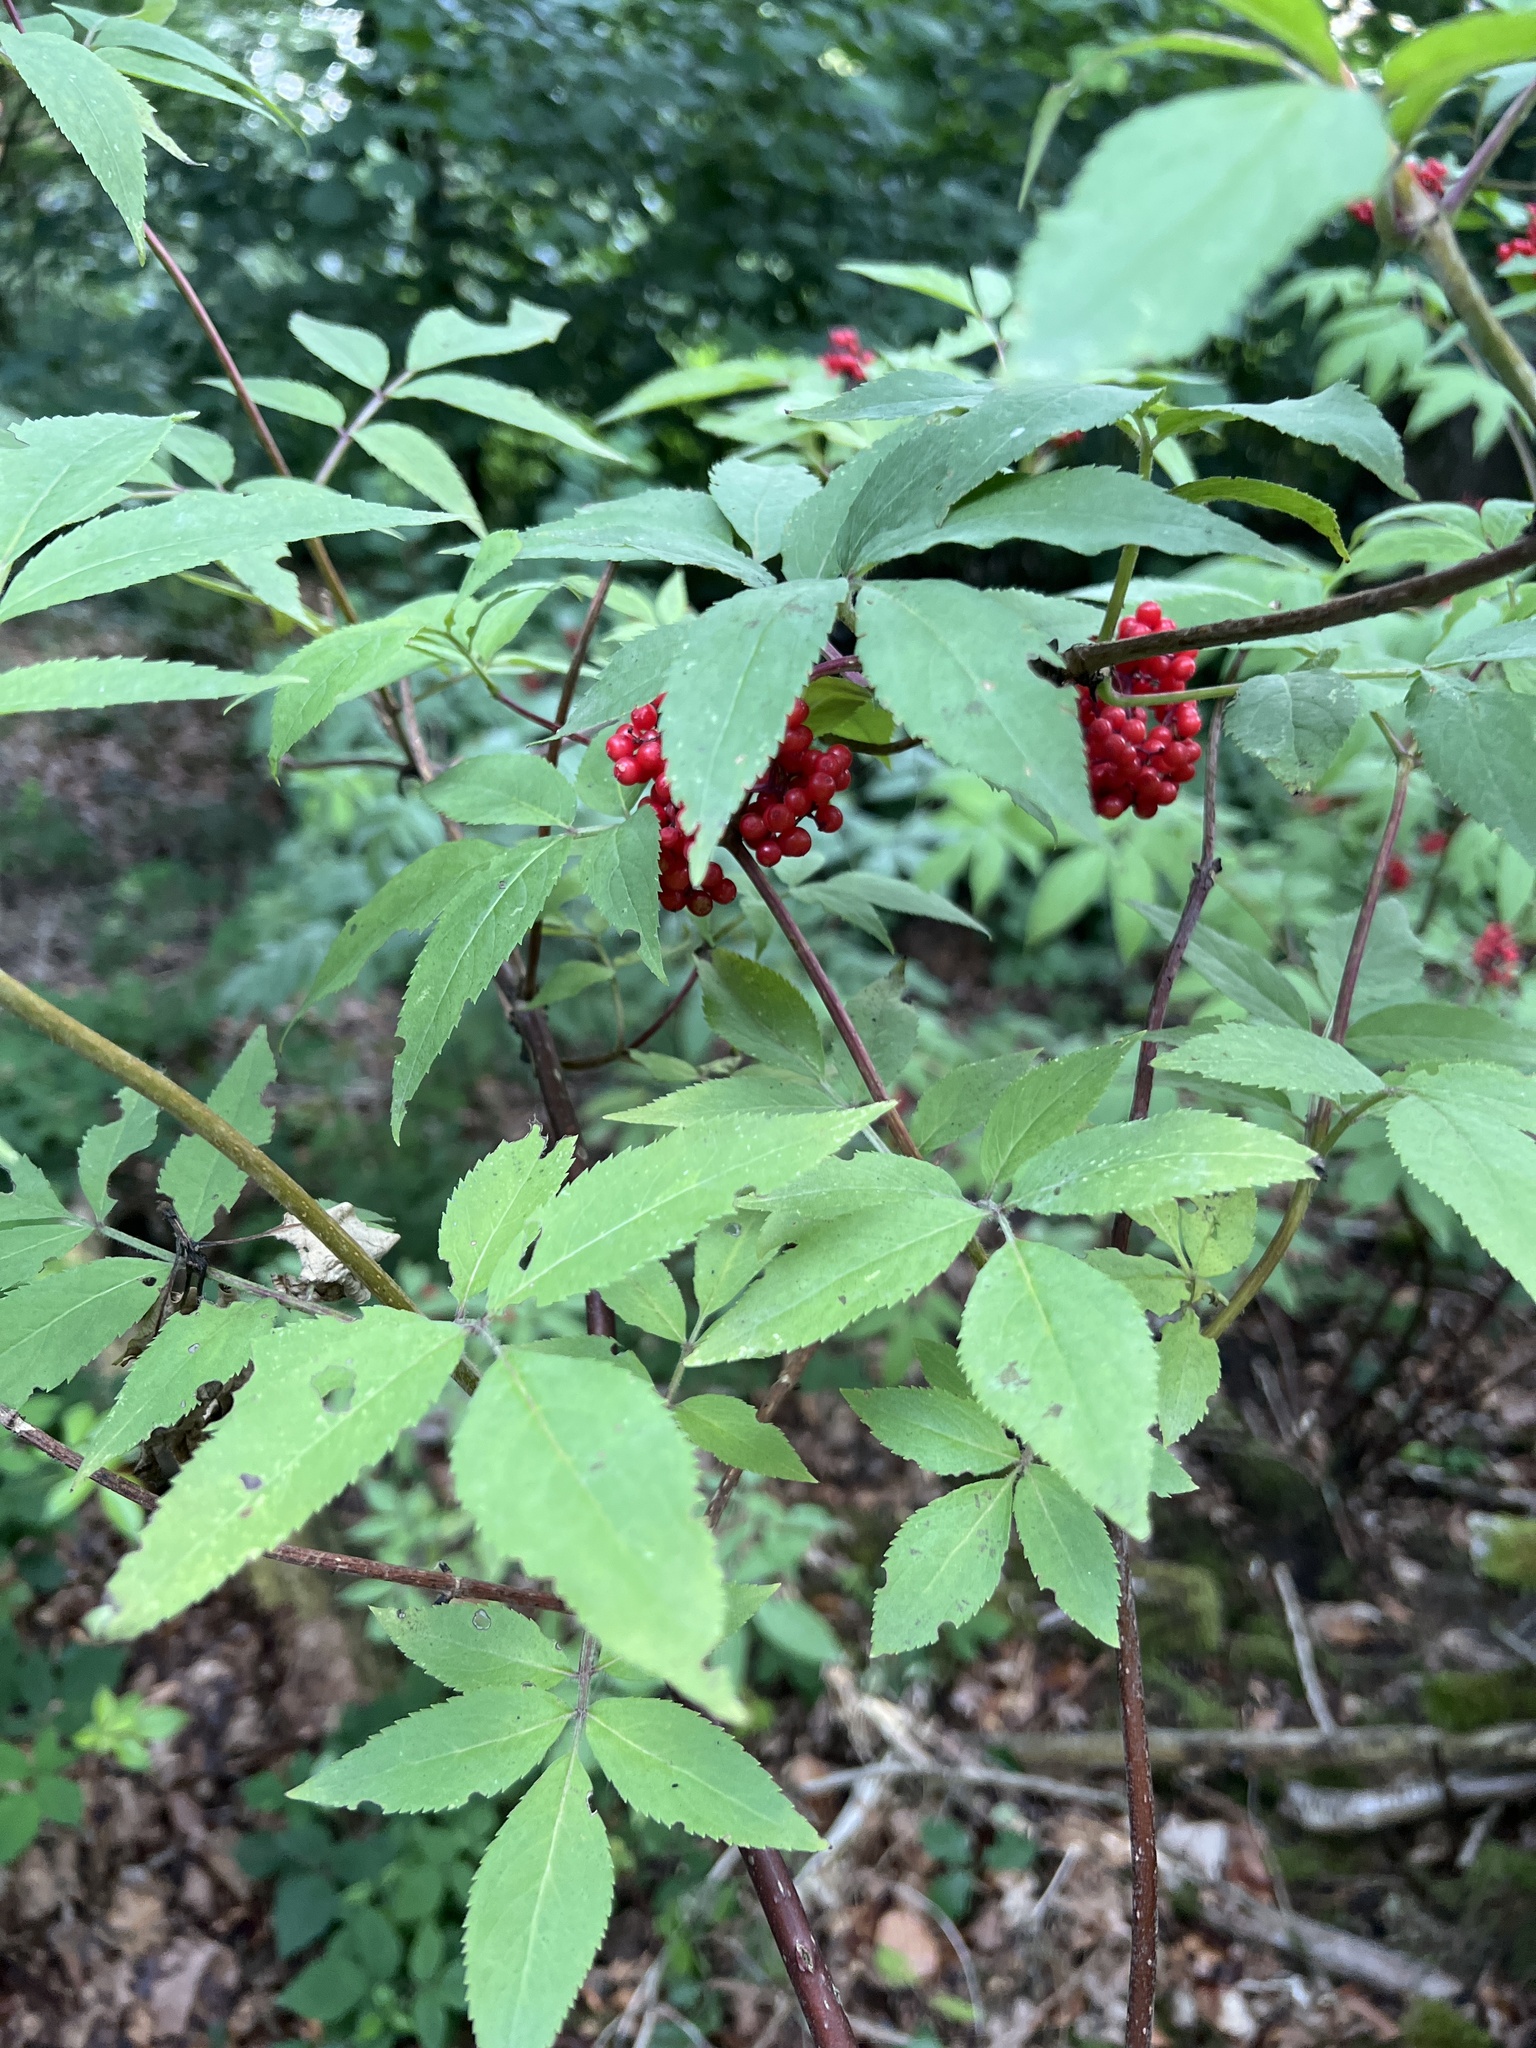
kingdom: Plantae
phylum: Tracheophyta
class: Magnoliopsida
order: Dipsacales
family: Viburnaceae
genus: Sambucus
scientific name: Sambucus racemosa
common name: Red-berried elder
